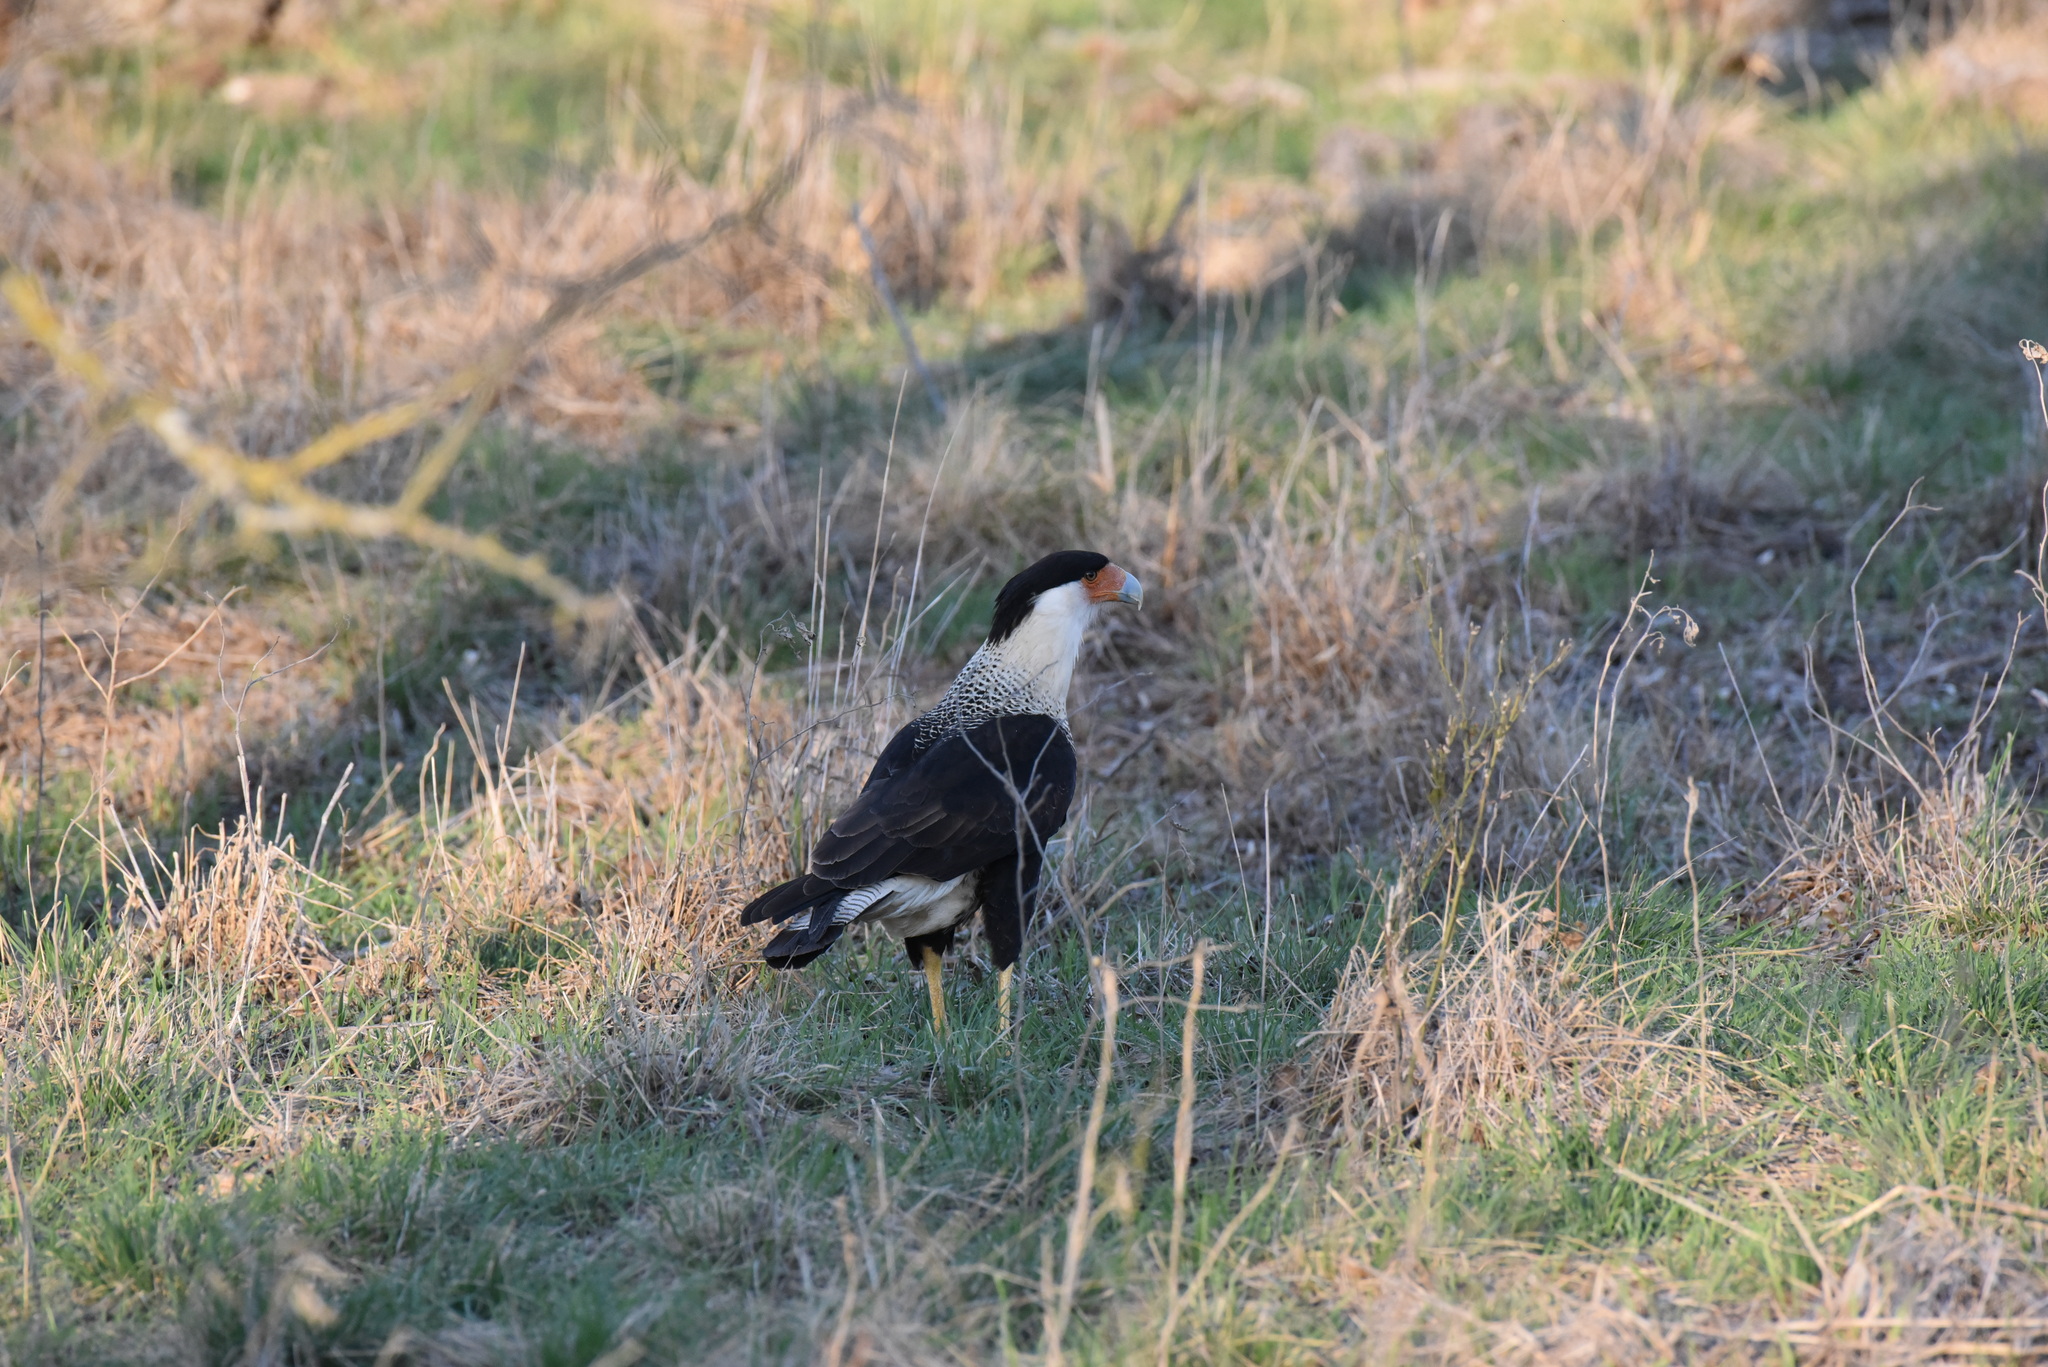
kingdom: Animalia
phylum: Chordata
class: Aves
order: Falconiformes
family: Falconidae
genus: Caracara
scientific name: Caracara plancus
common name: Southern caracara
